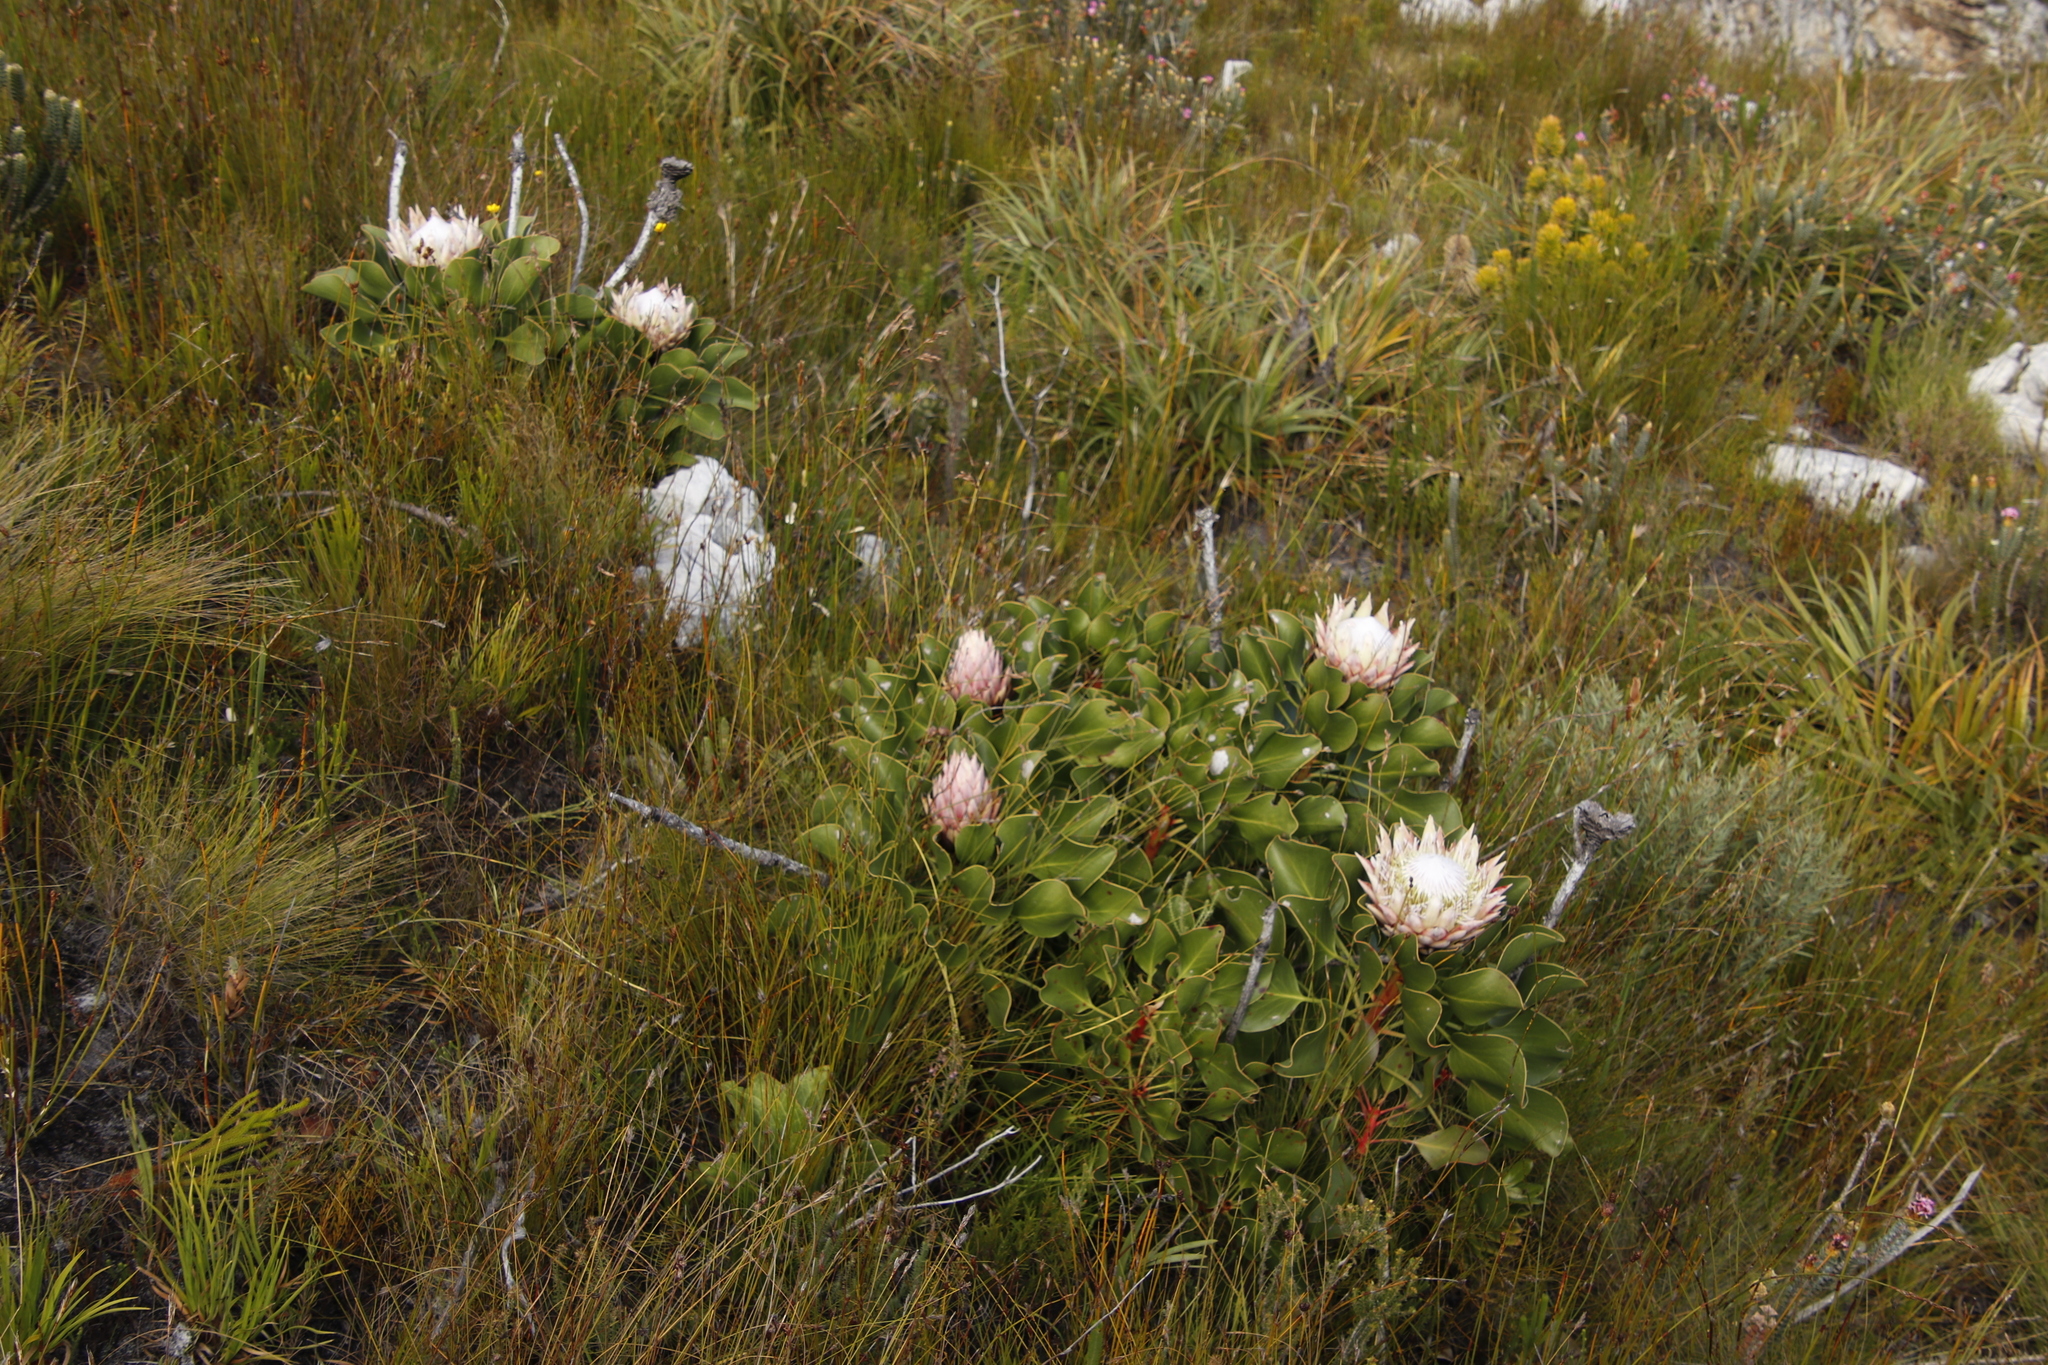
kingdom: Plantae
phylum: Tracheophyta
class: Magnoliopsida
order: Proteales
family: Proteaceae
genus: Protea
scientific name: Protea cynaroides
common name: King protea
